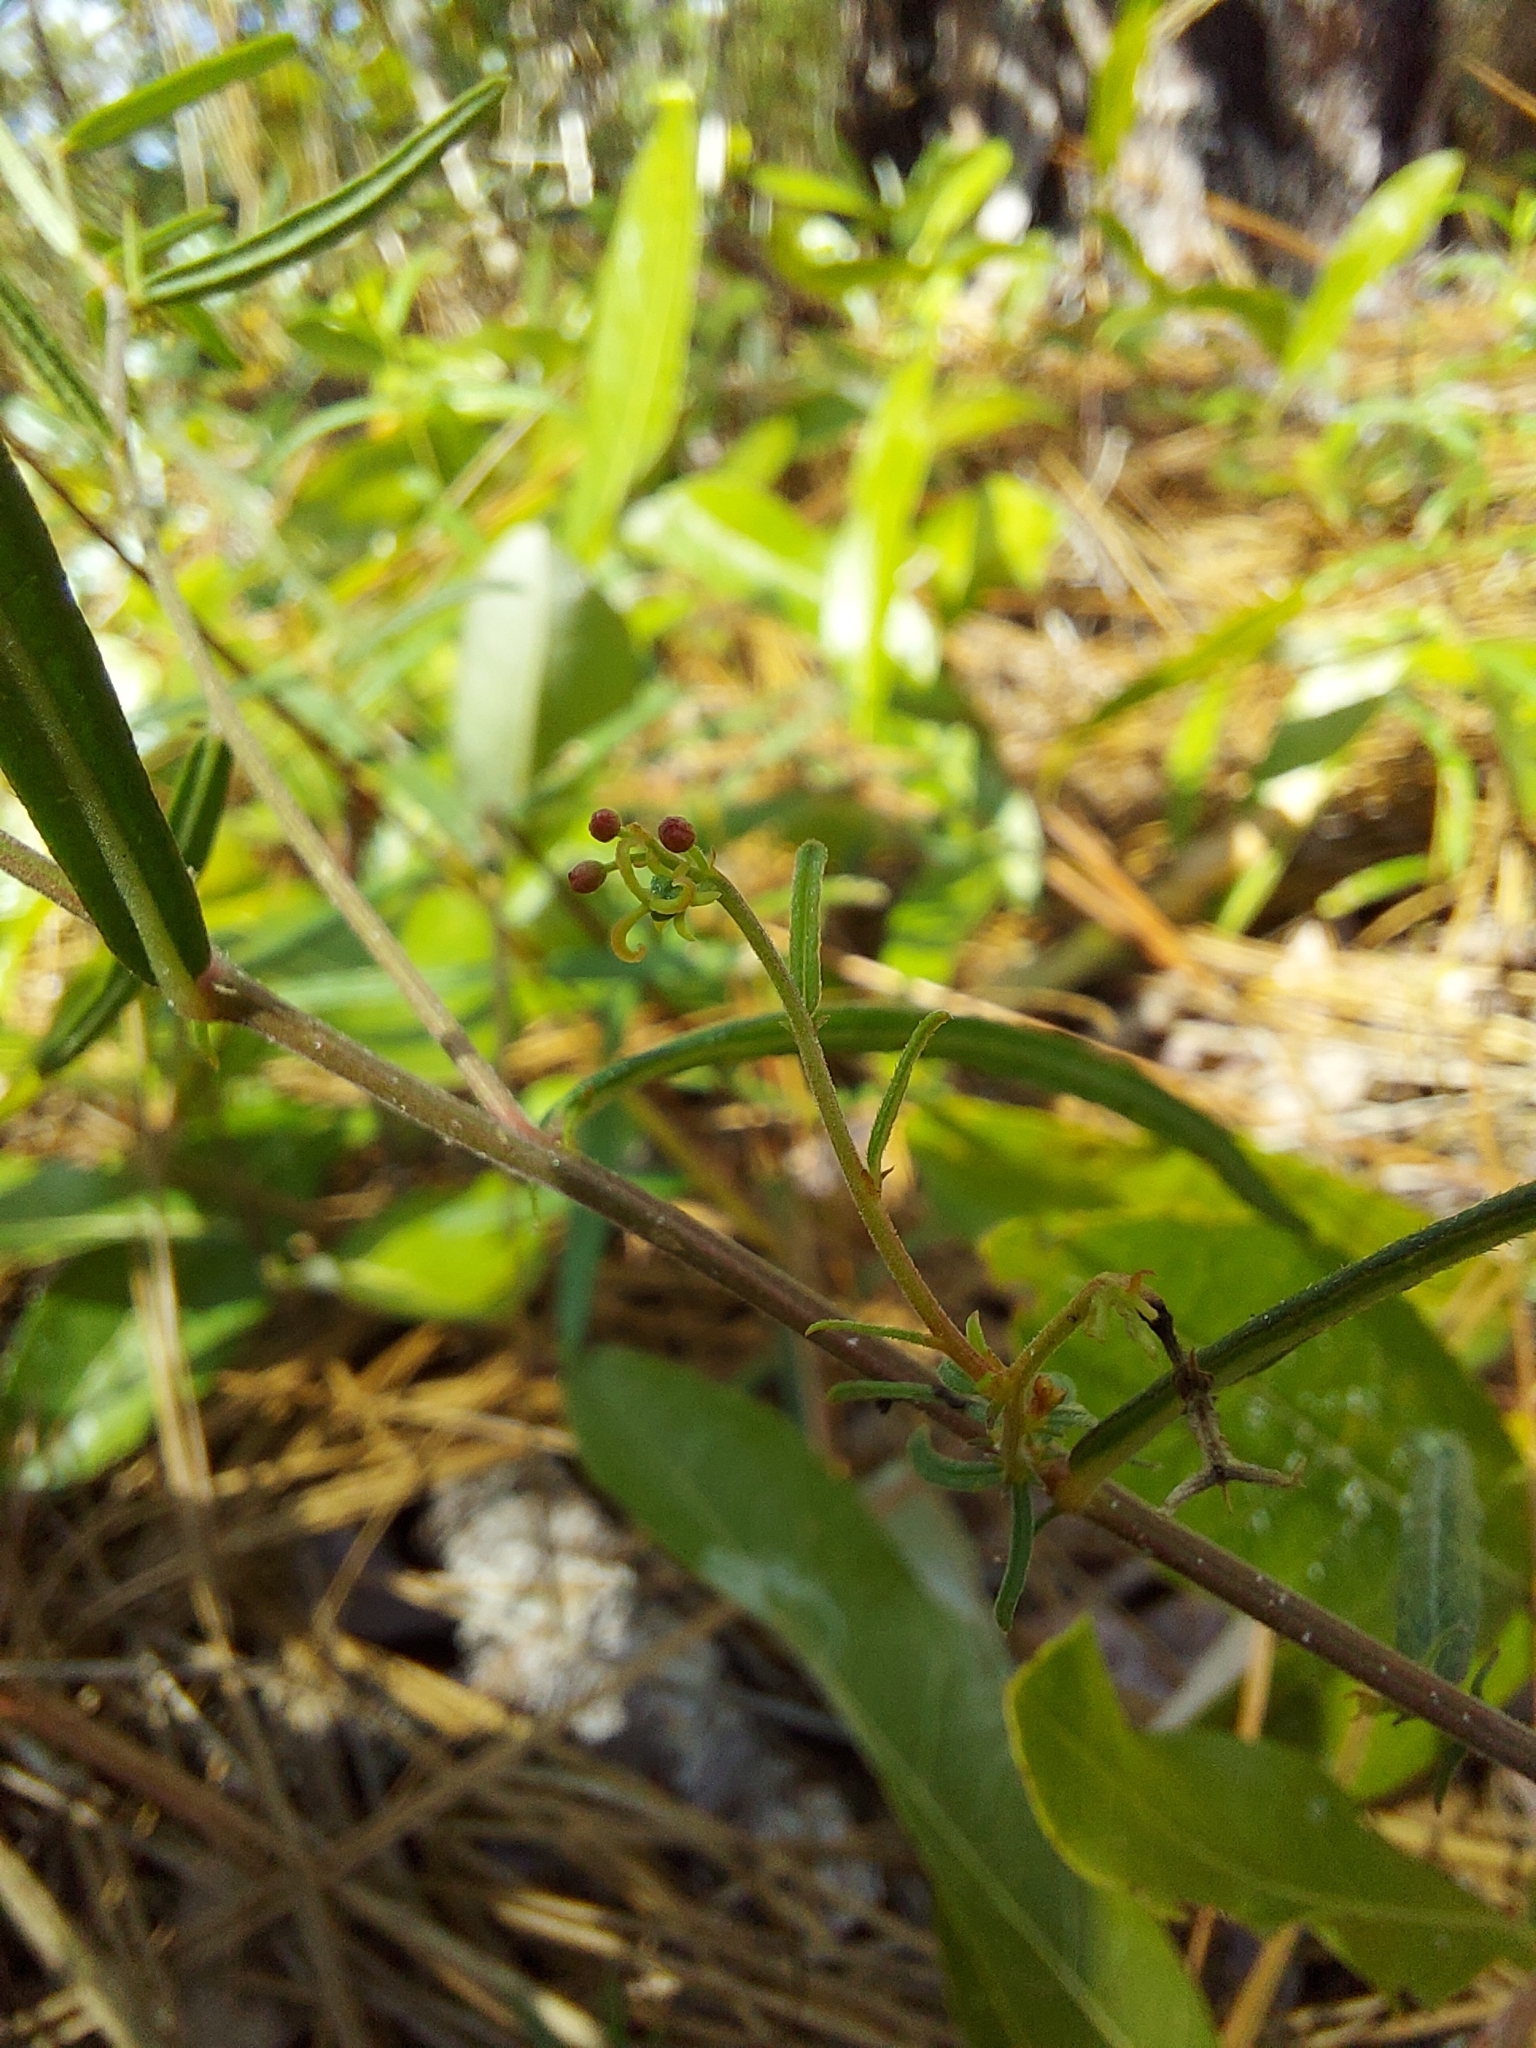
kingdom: Plantae
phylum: Tracheophyta
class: Magnoliopsida
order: Malpighiales
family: Euphorbiaceae
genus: Tragia
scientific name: Tragia urens
